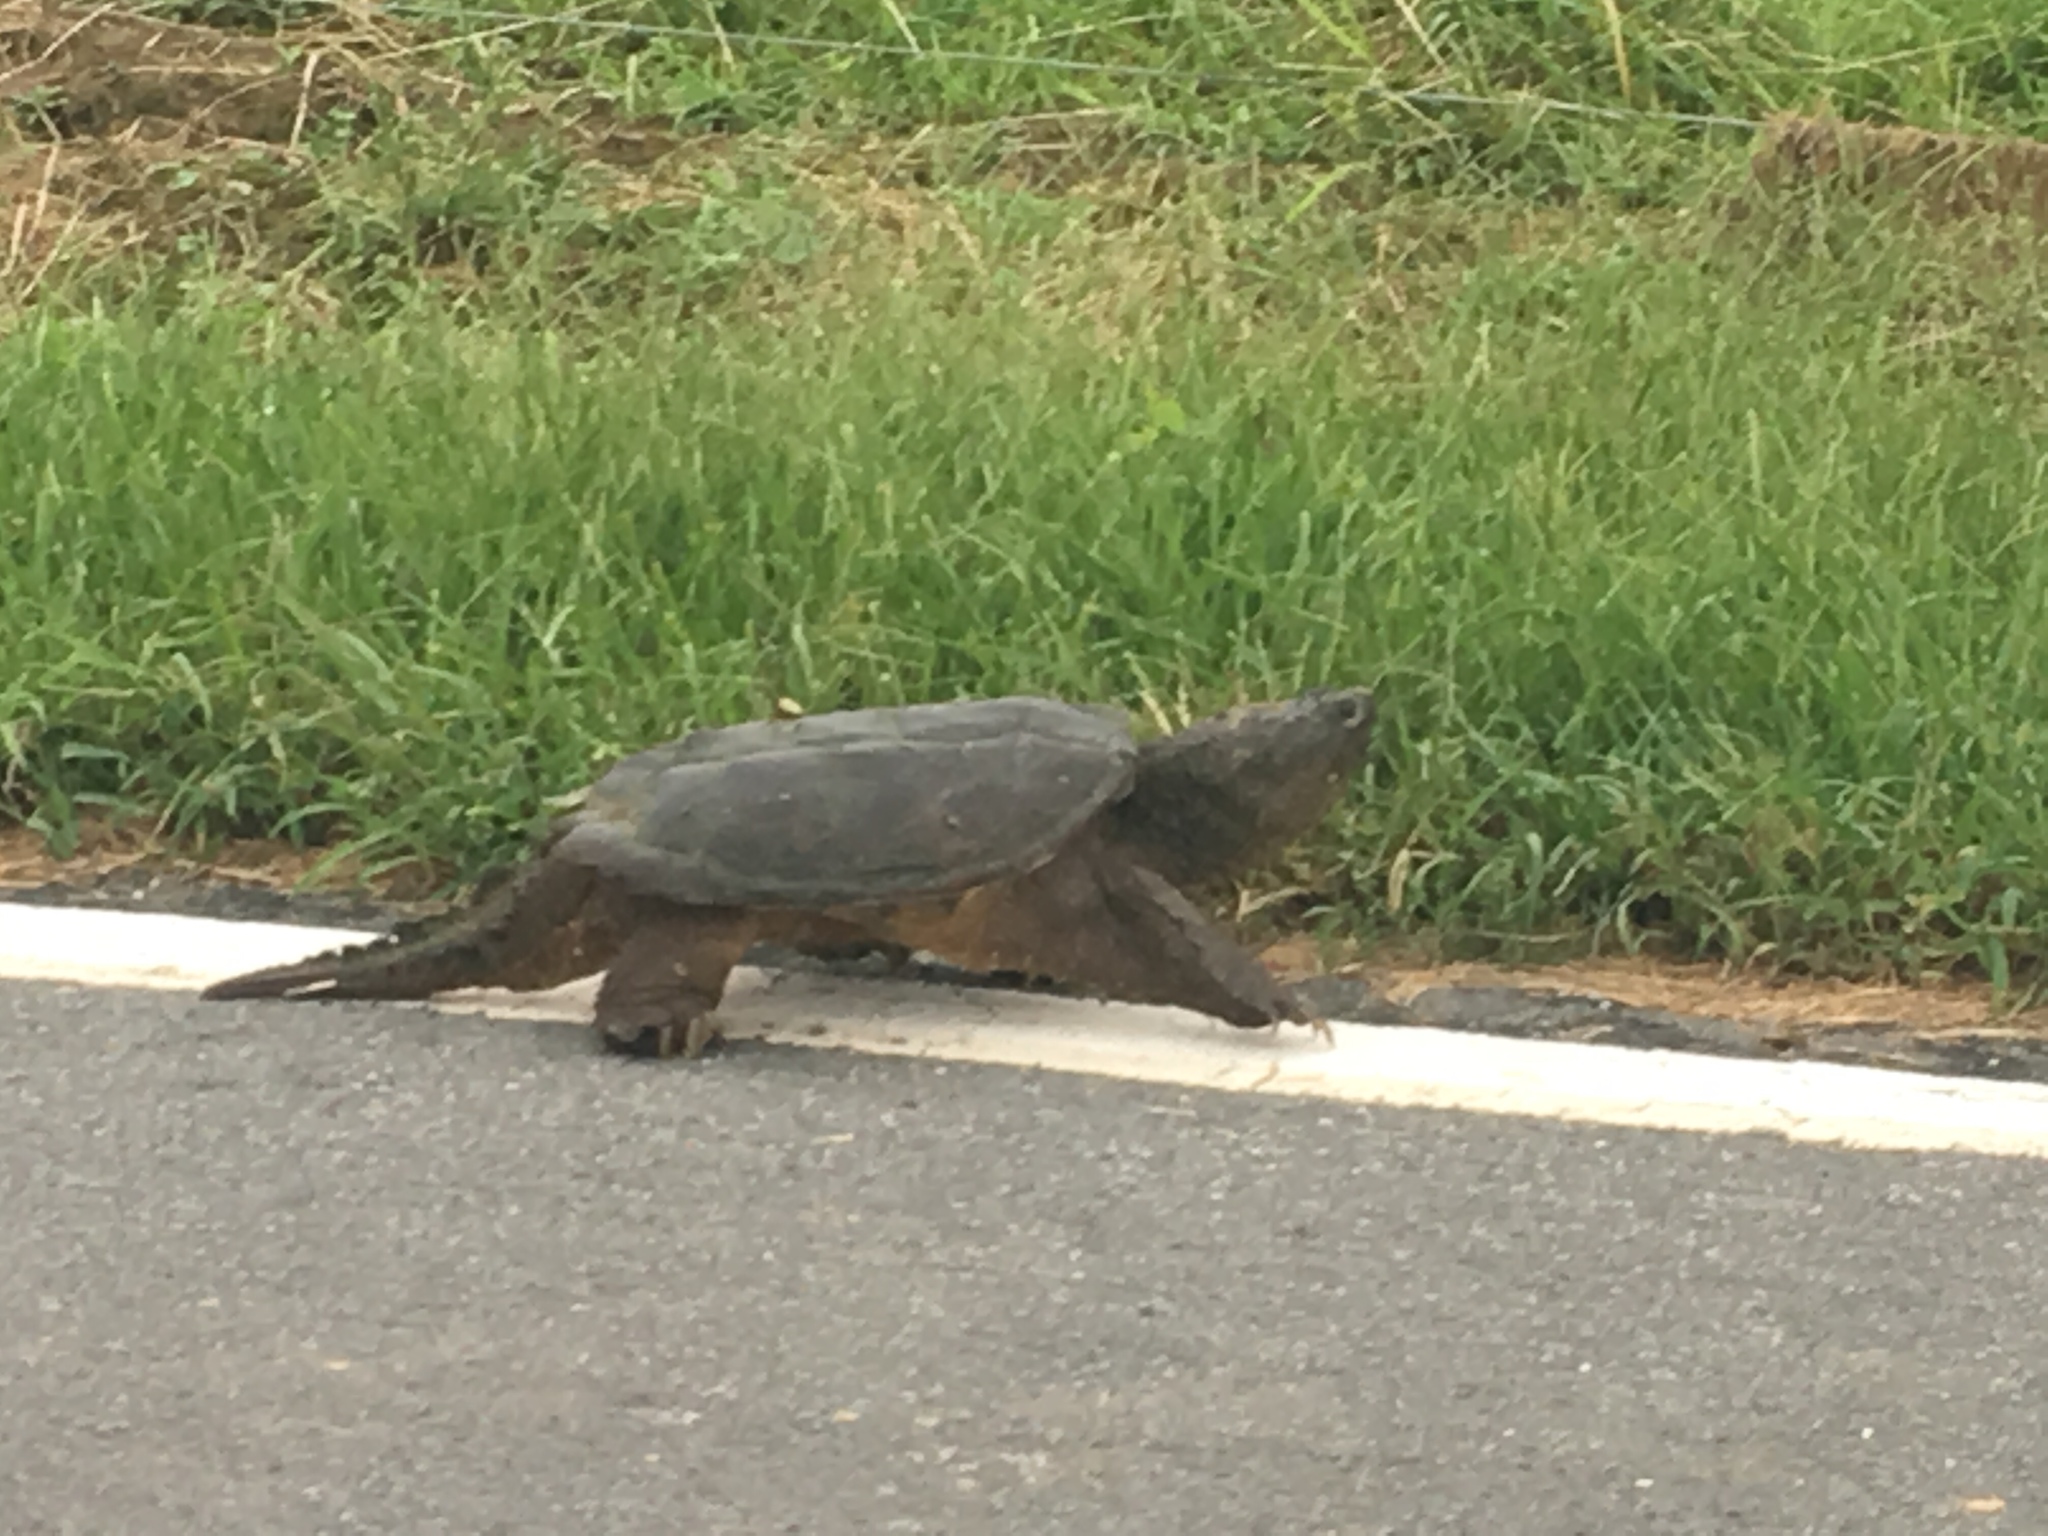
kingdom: Animalia
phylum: Chordata
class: Testudines
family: Chelydridae
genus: Chelydra
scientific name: Chelydra serpentina
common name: Common snapping turtle
